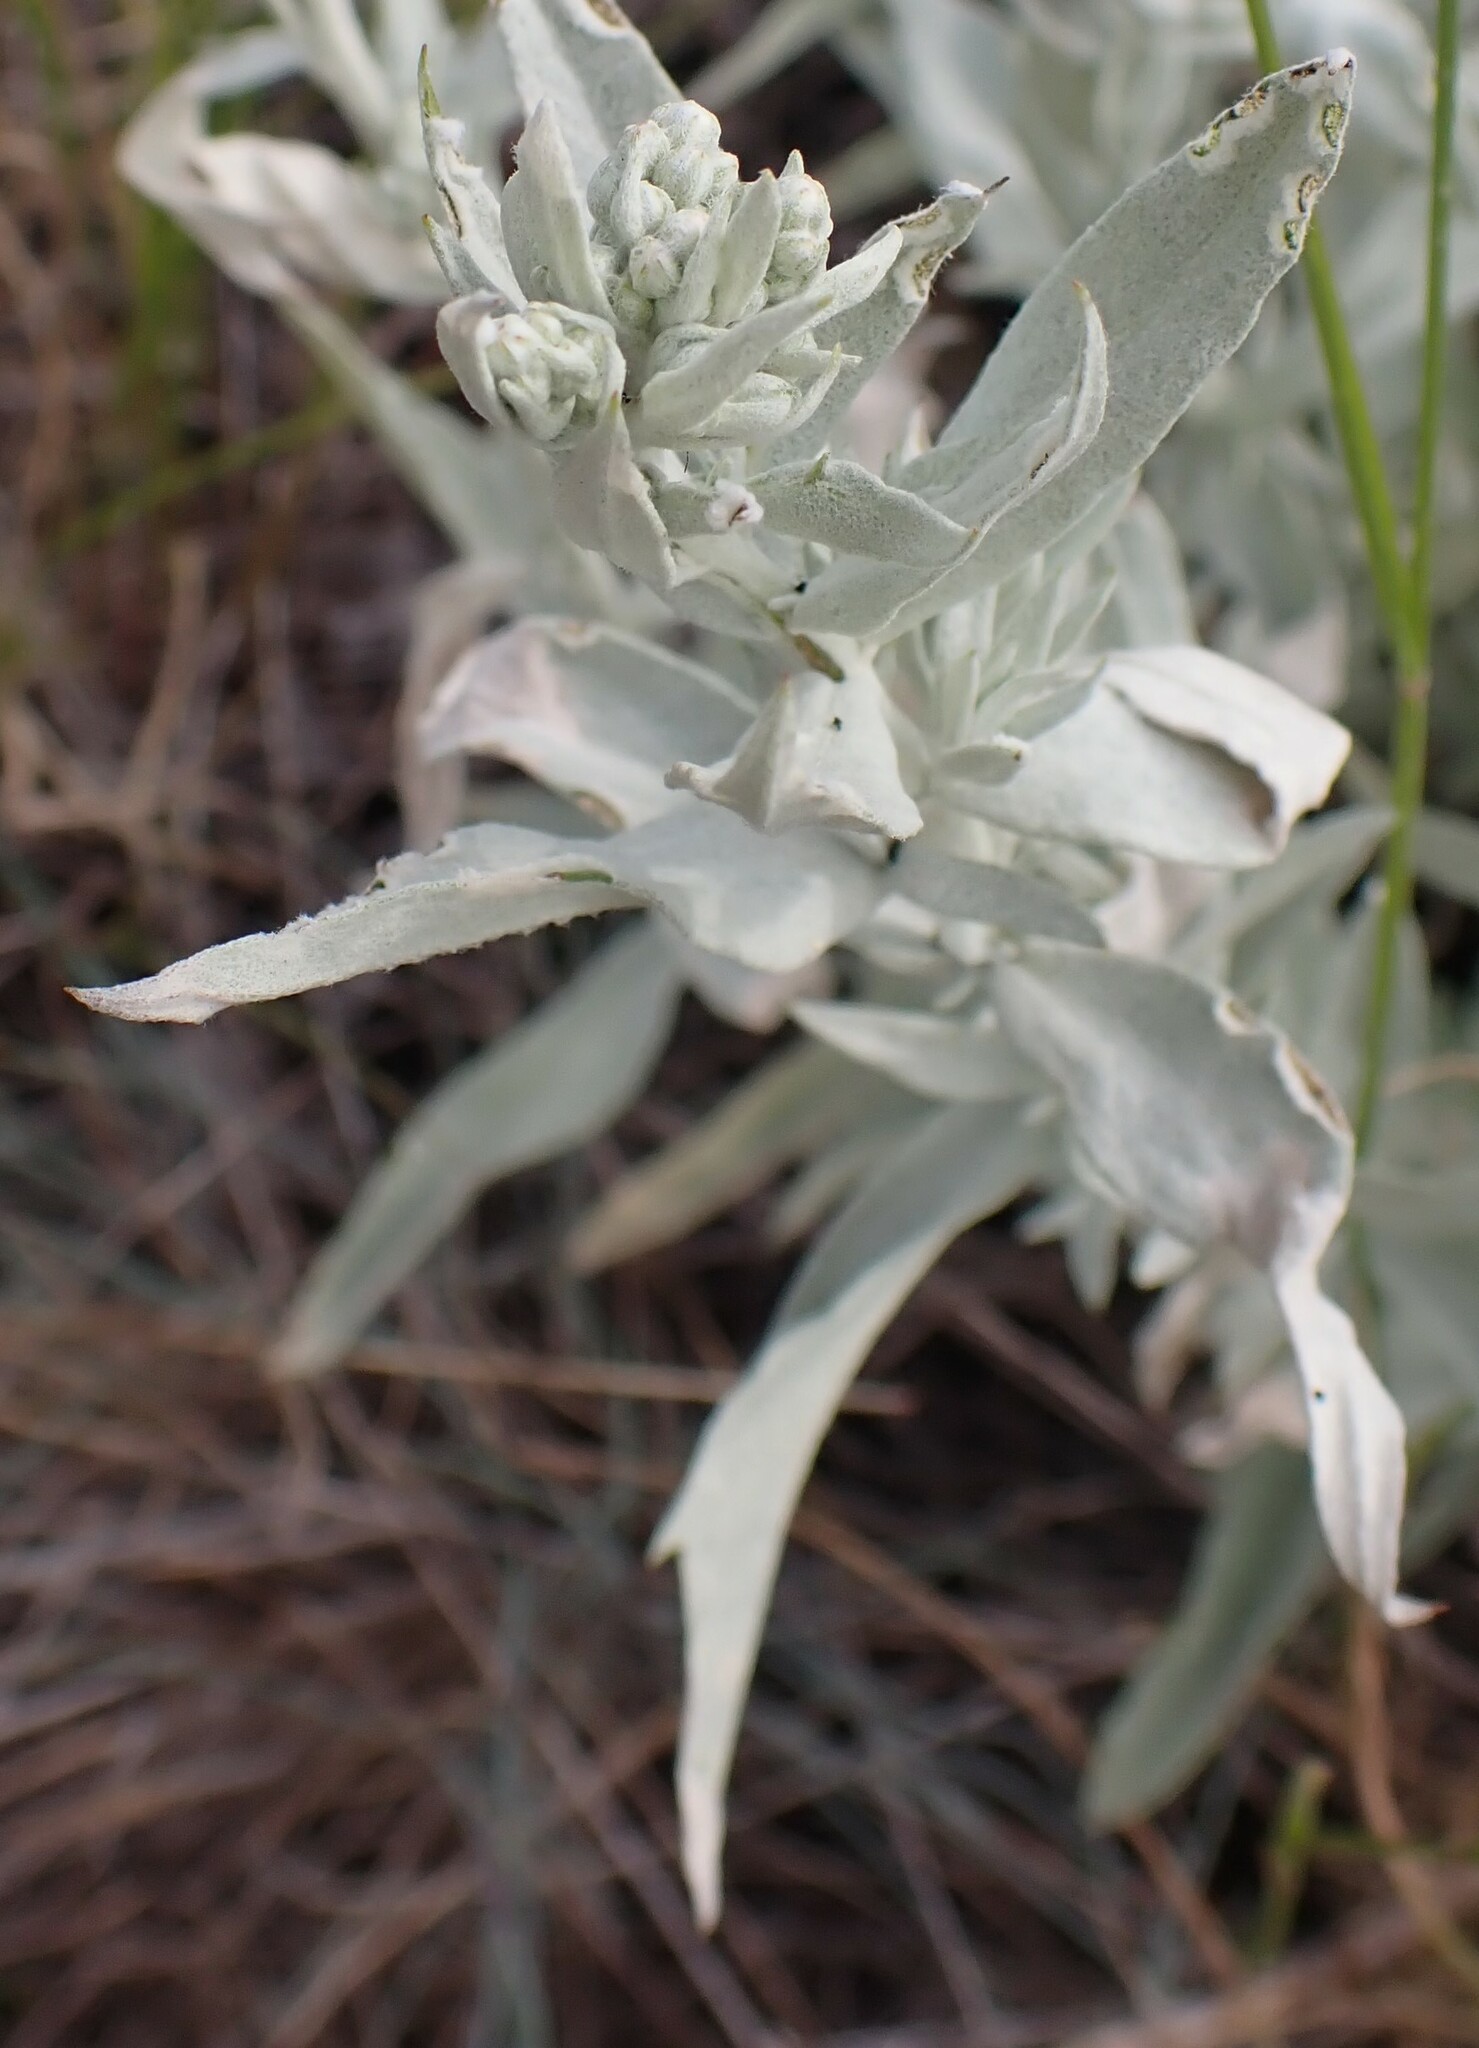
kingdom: Plantae
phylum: Tracheophyta
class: Magnoliopsida
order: Asterales
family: Asteraceae
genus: Artemisia
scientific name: Artemisia ludoviciana
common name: Western mugwort
